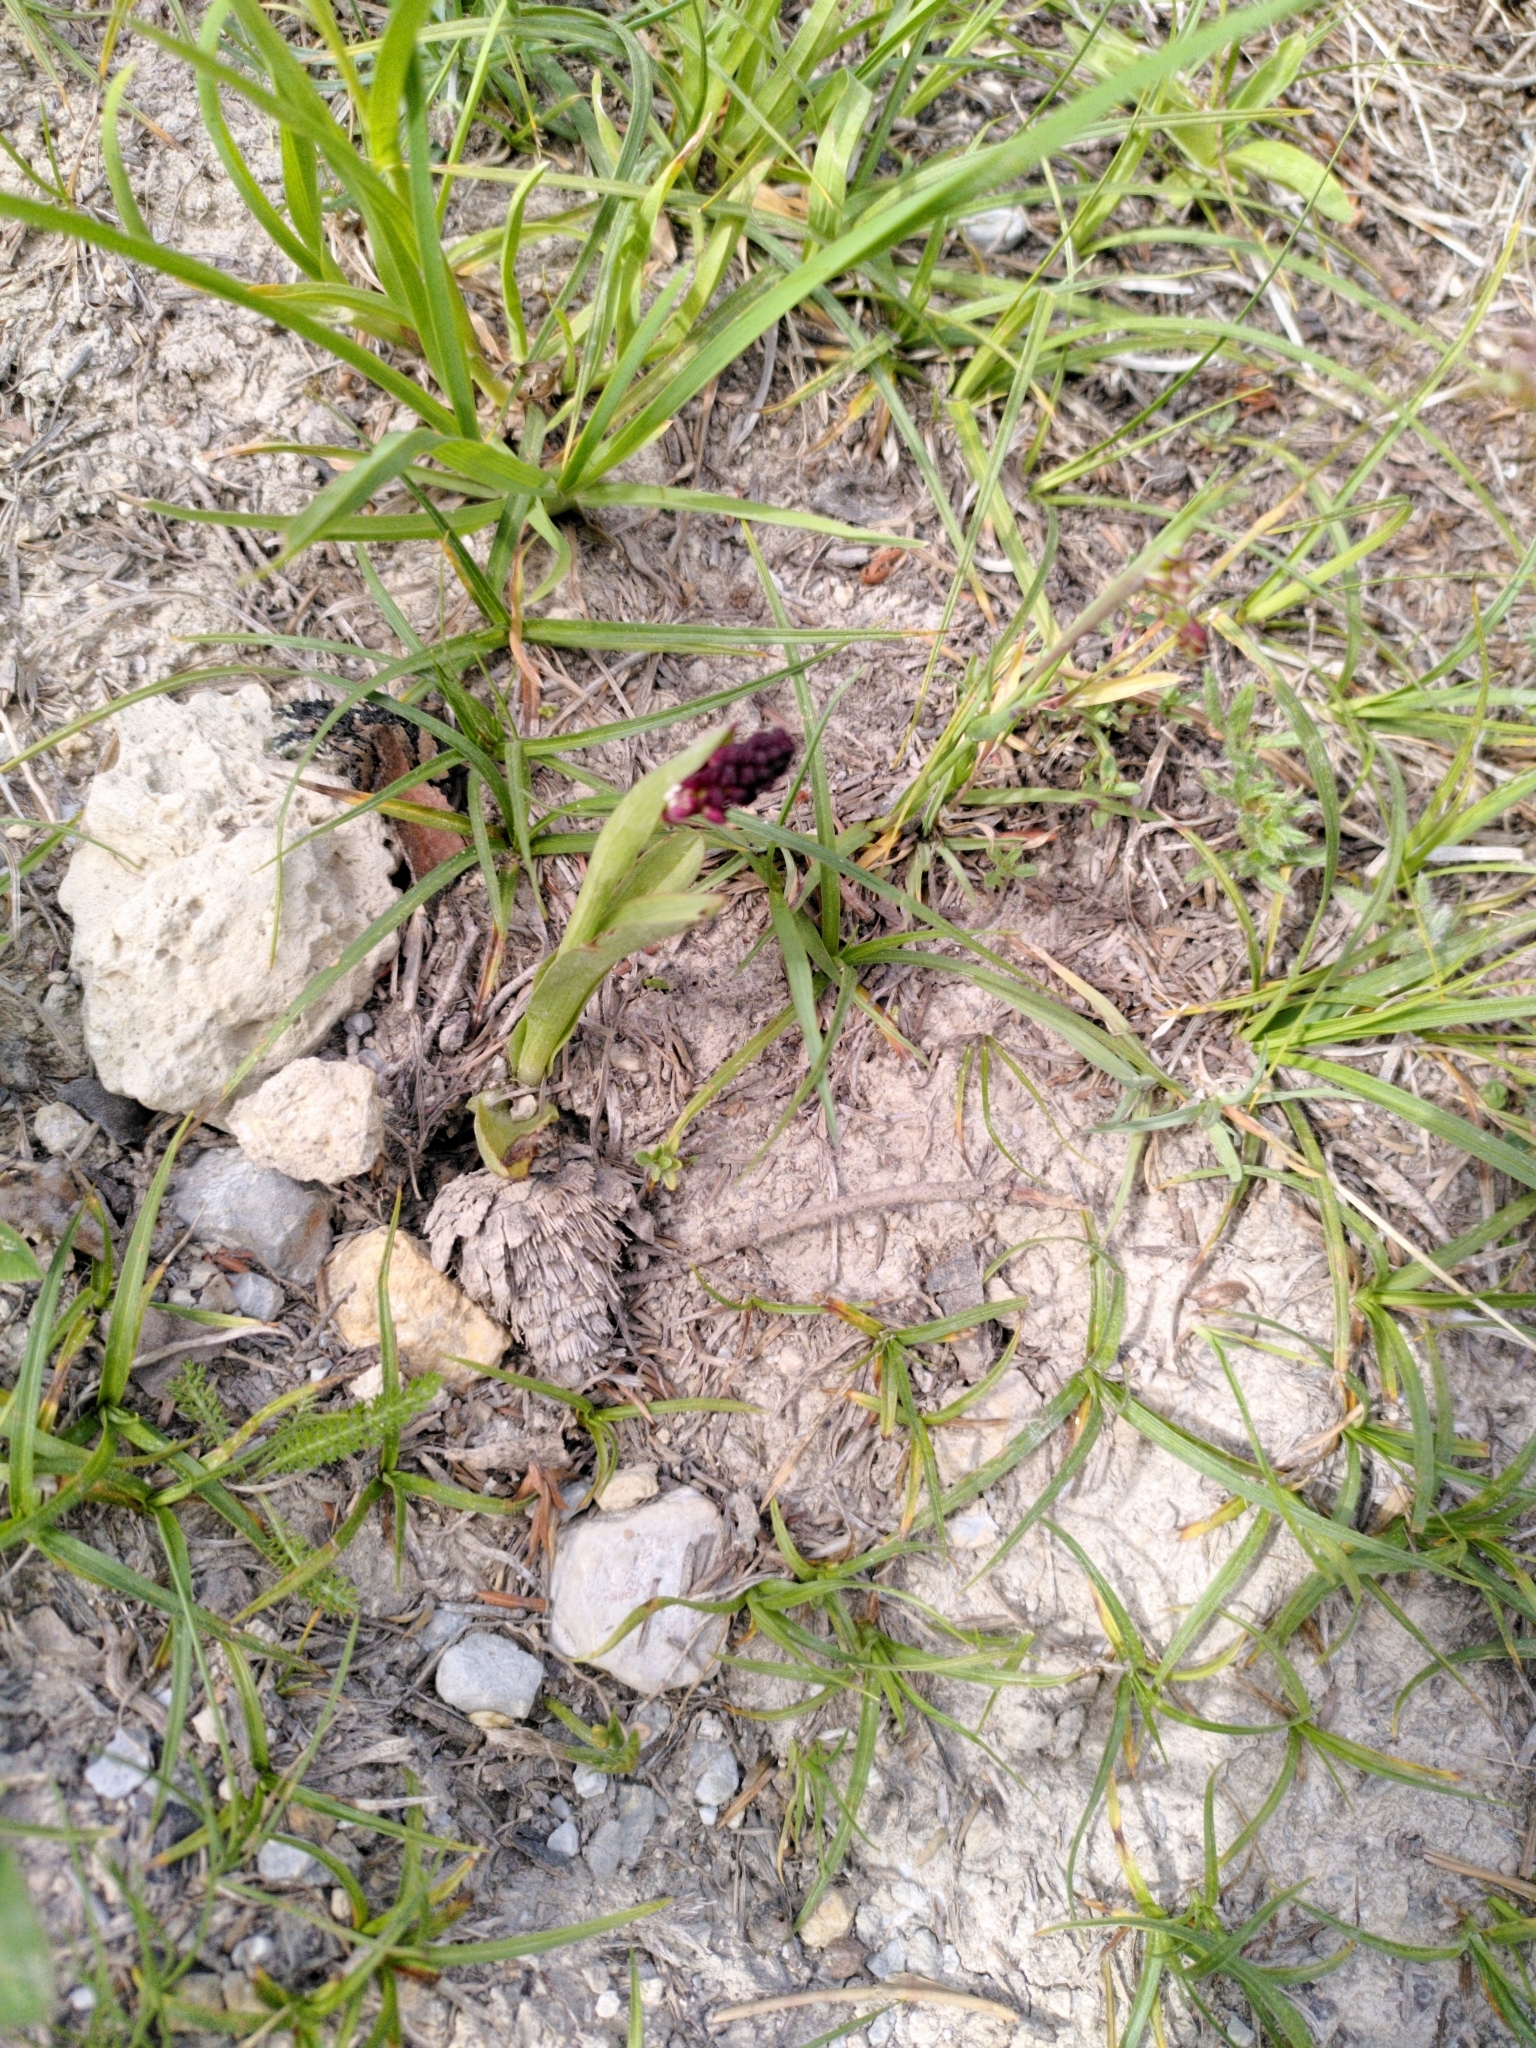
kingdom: Plantae
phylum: Tracheophyta
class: Liliopsida
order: Asparagales
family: Orchidaceae
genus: Neotinea
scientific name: Neotinea ustulata
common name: Burnt orchid
